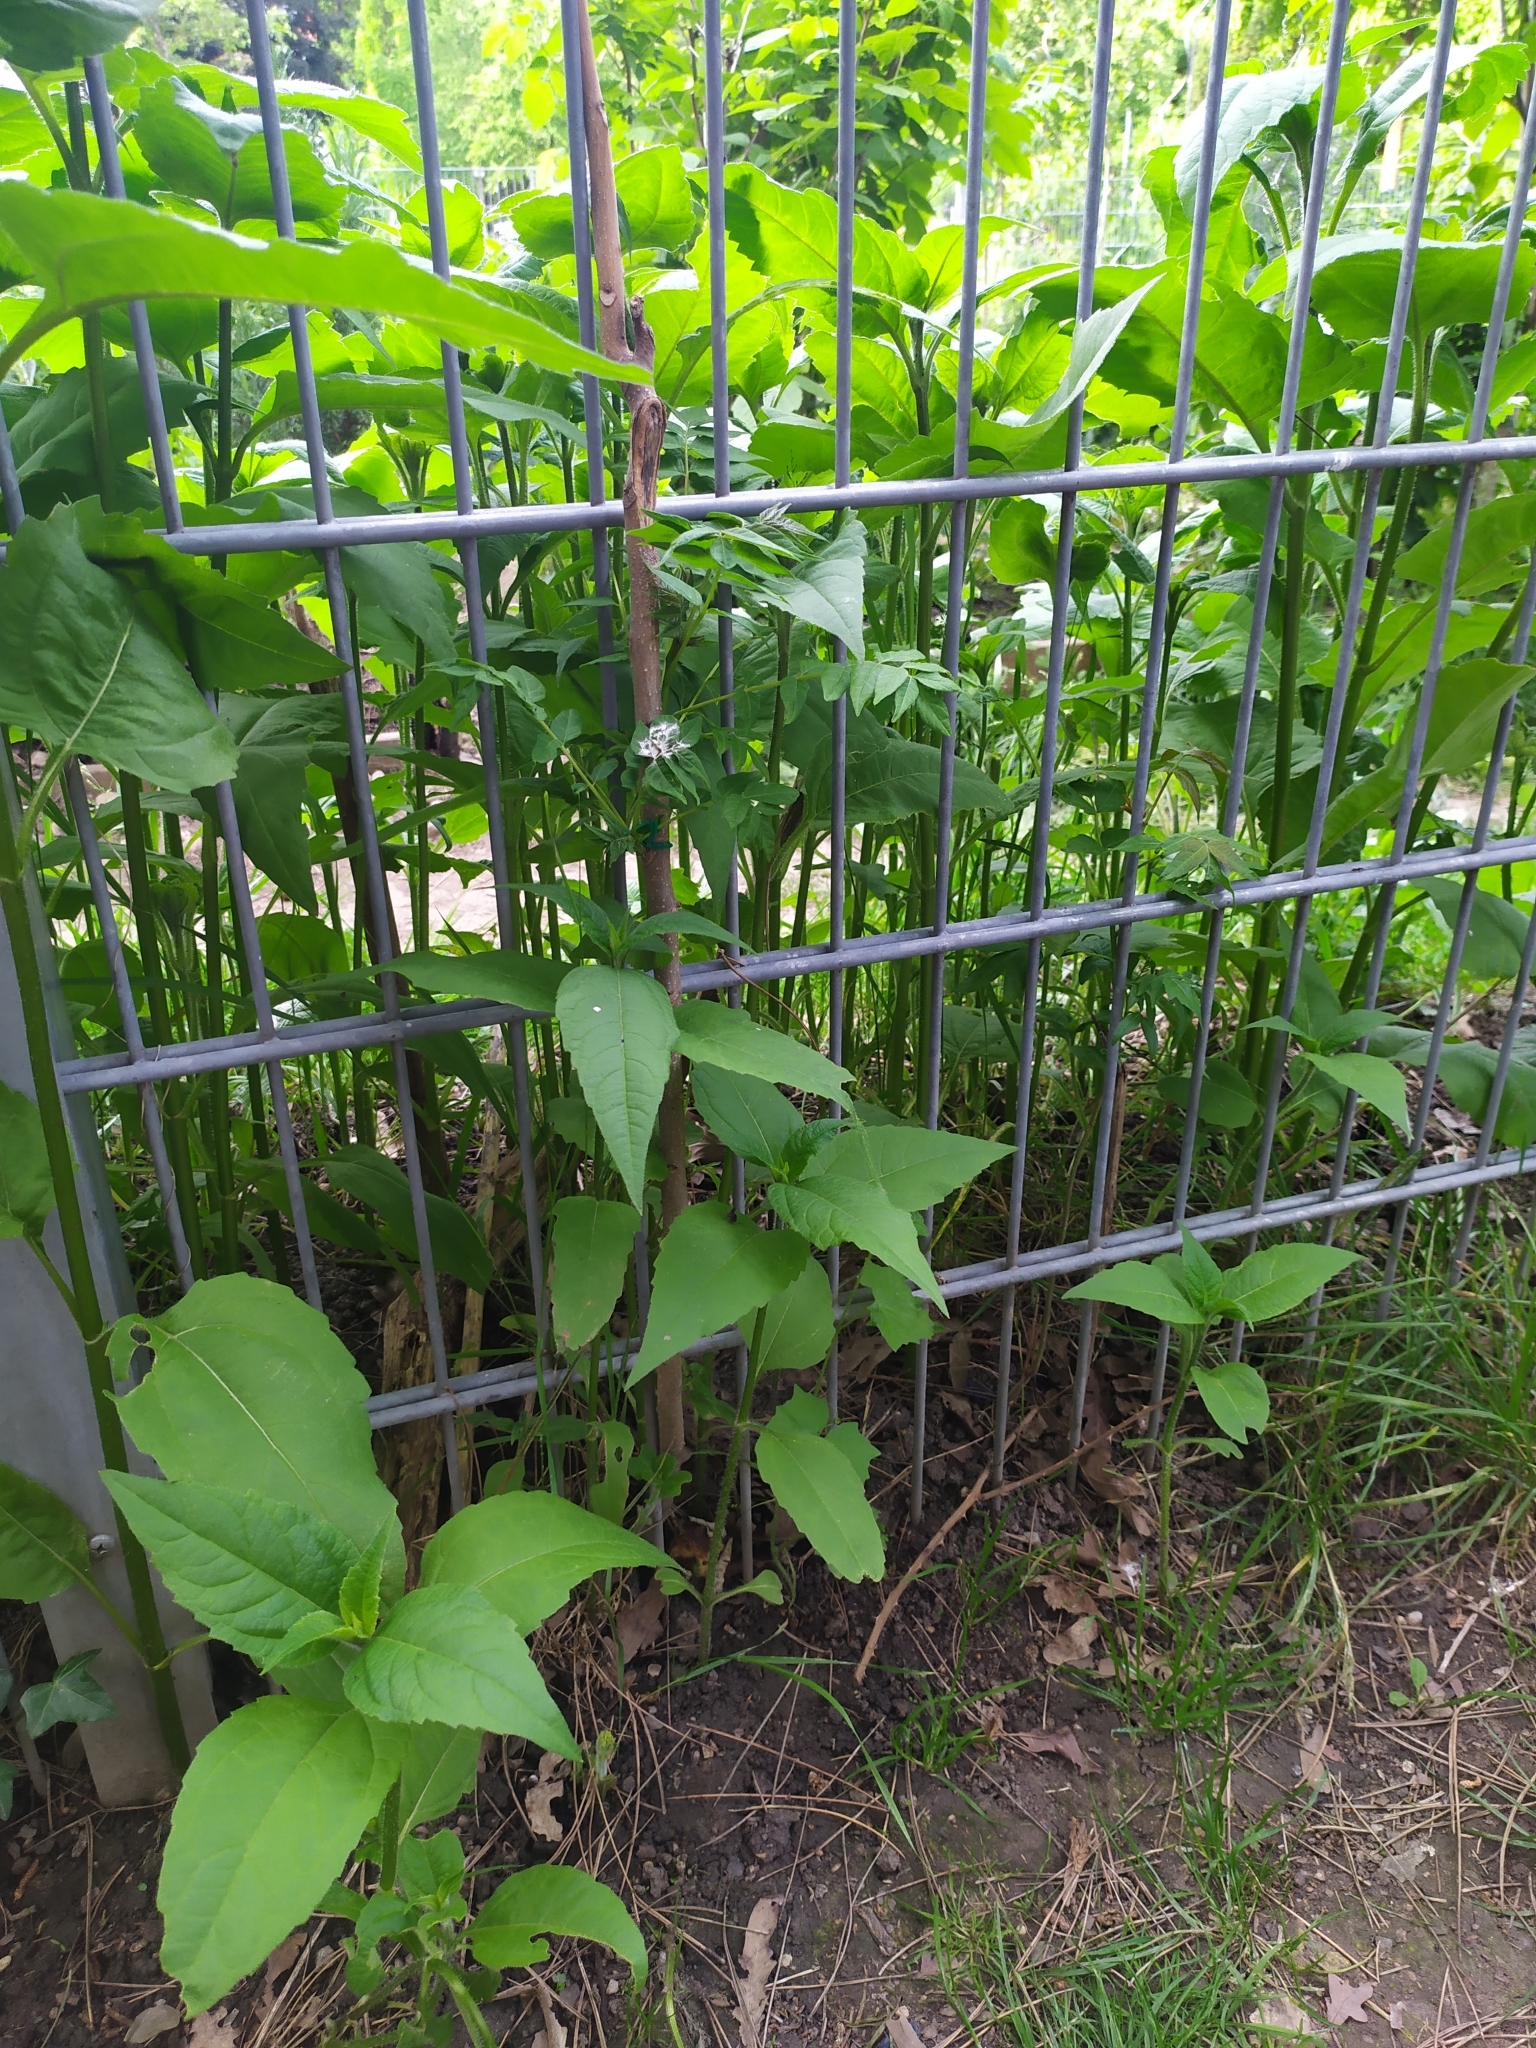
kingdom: Plantae
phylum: Tracheophyta
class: Magnoliopsida
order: Asterales
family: Asteraceae
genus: Helianthus
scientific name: Helianthus tuberosus
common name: Jerusalem artichoke
